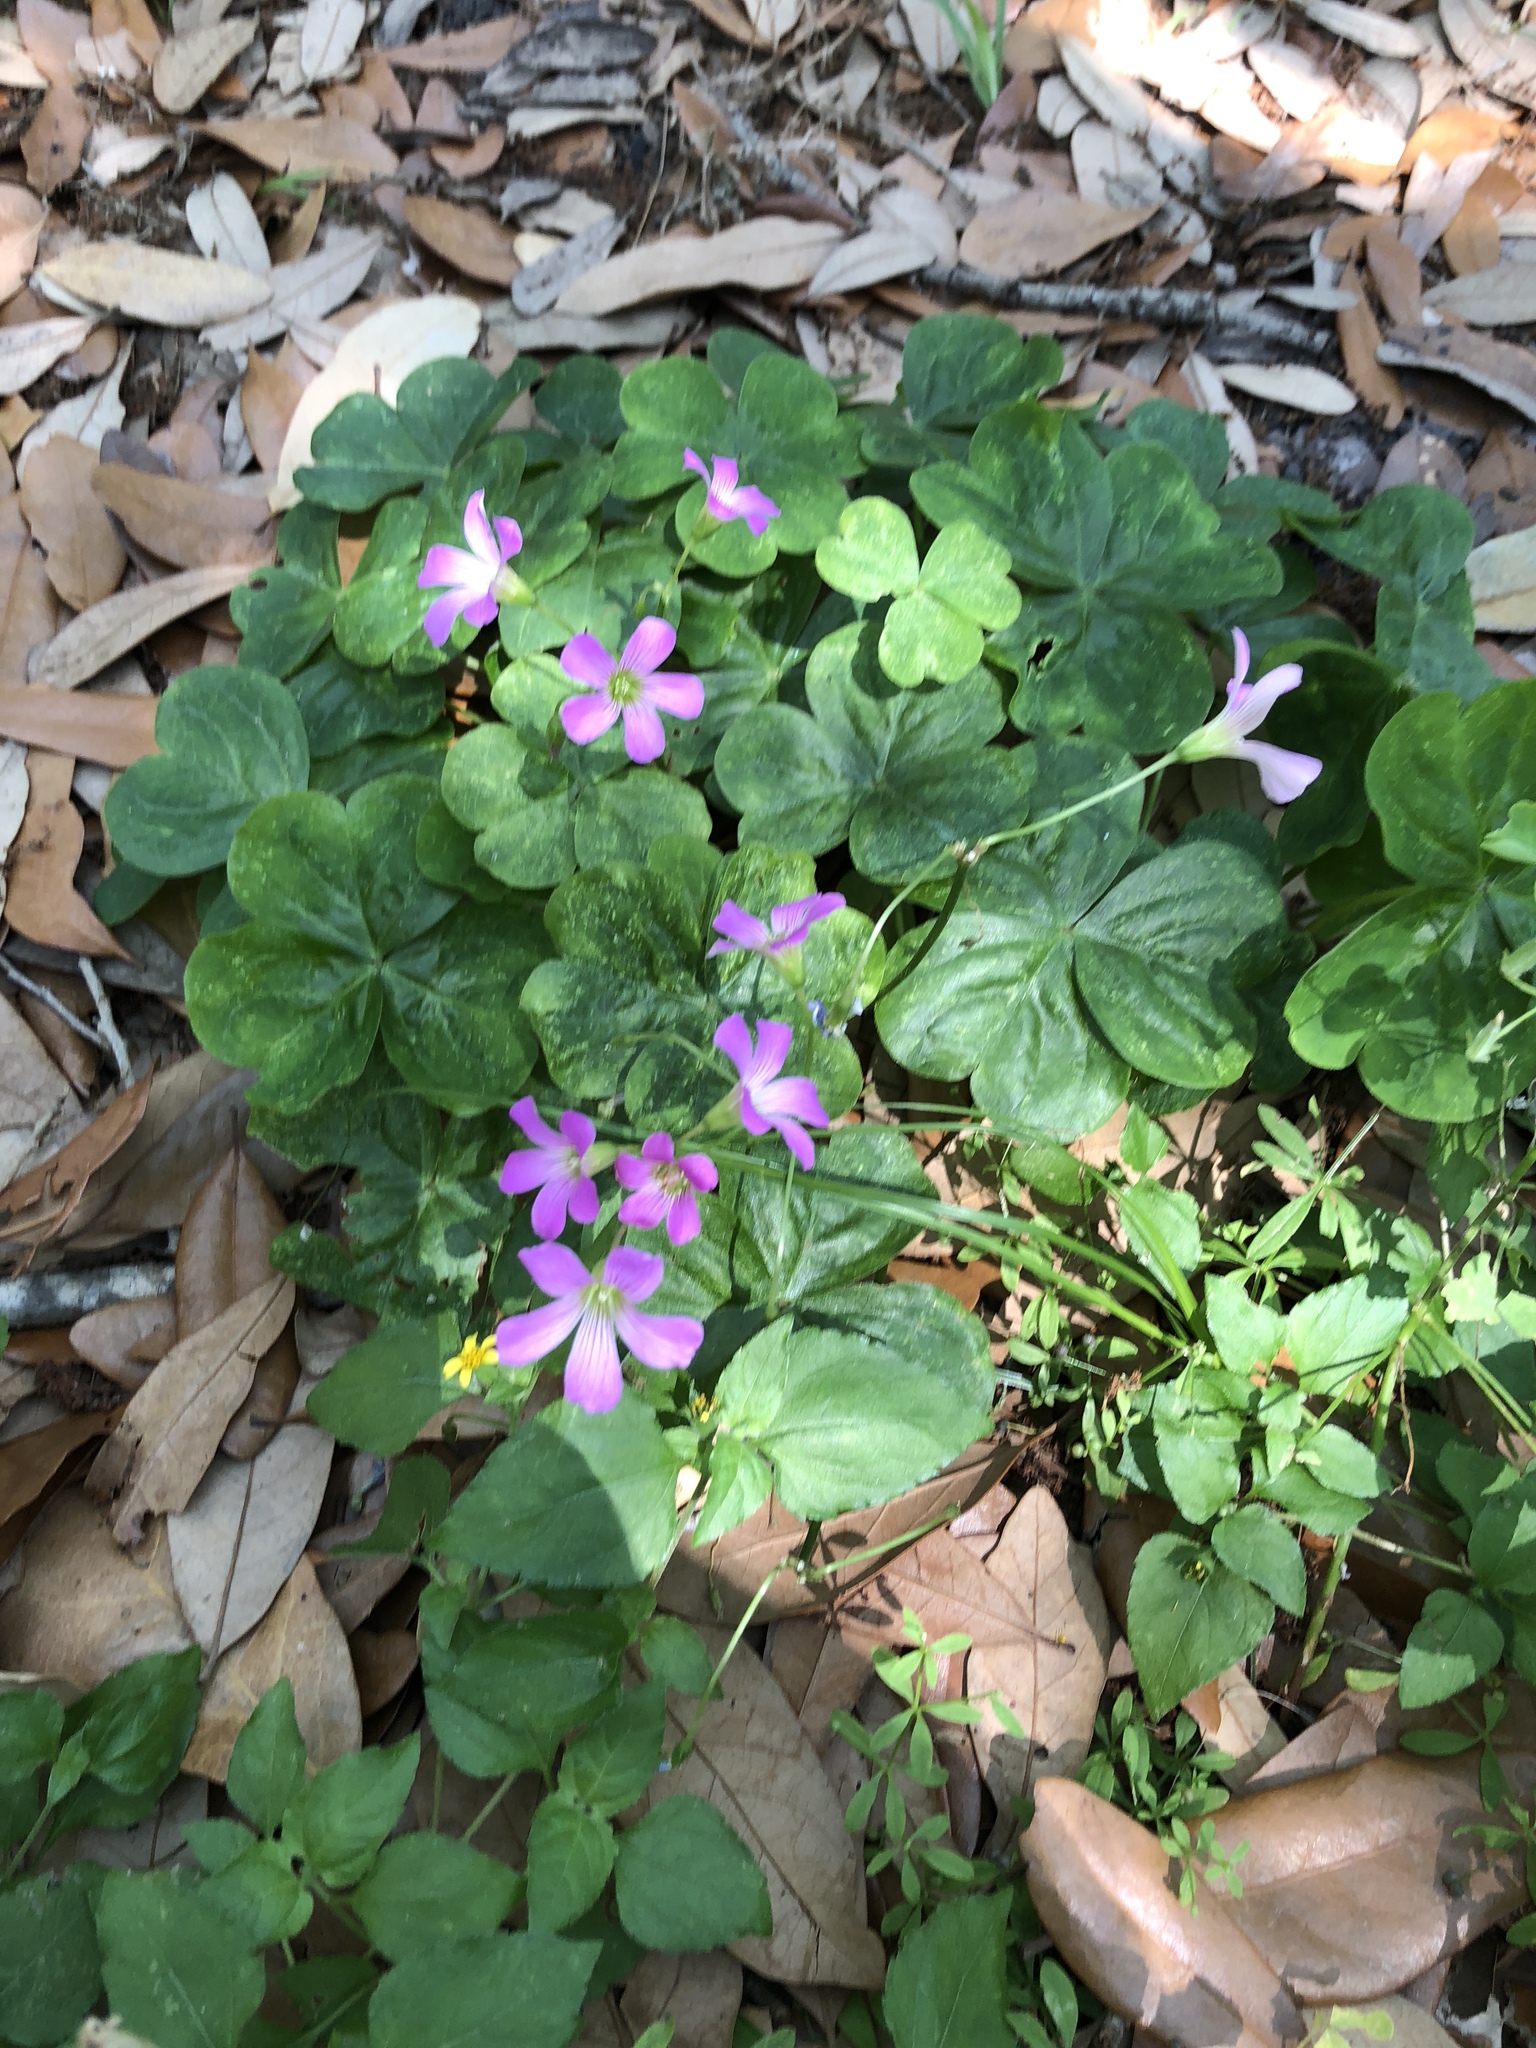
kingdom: Plantae
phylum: Tracheophyta
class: Magnoliopsida
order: Oxalidales
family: Oxalidaceae
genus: Oxalis
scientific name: Oxalis debilis
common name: Large-flowered pink-sorrel
